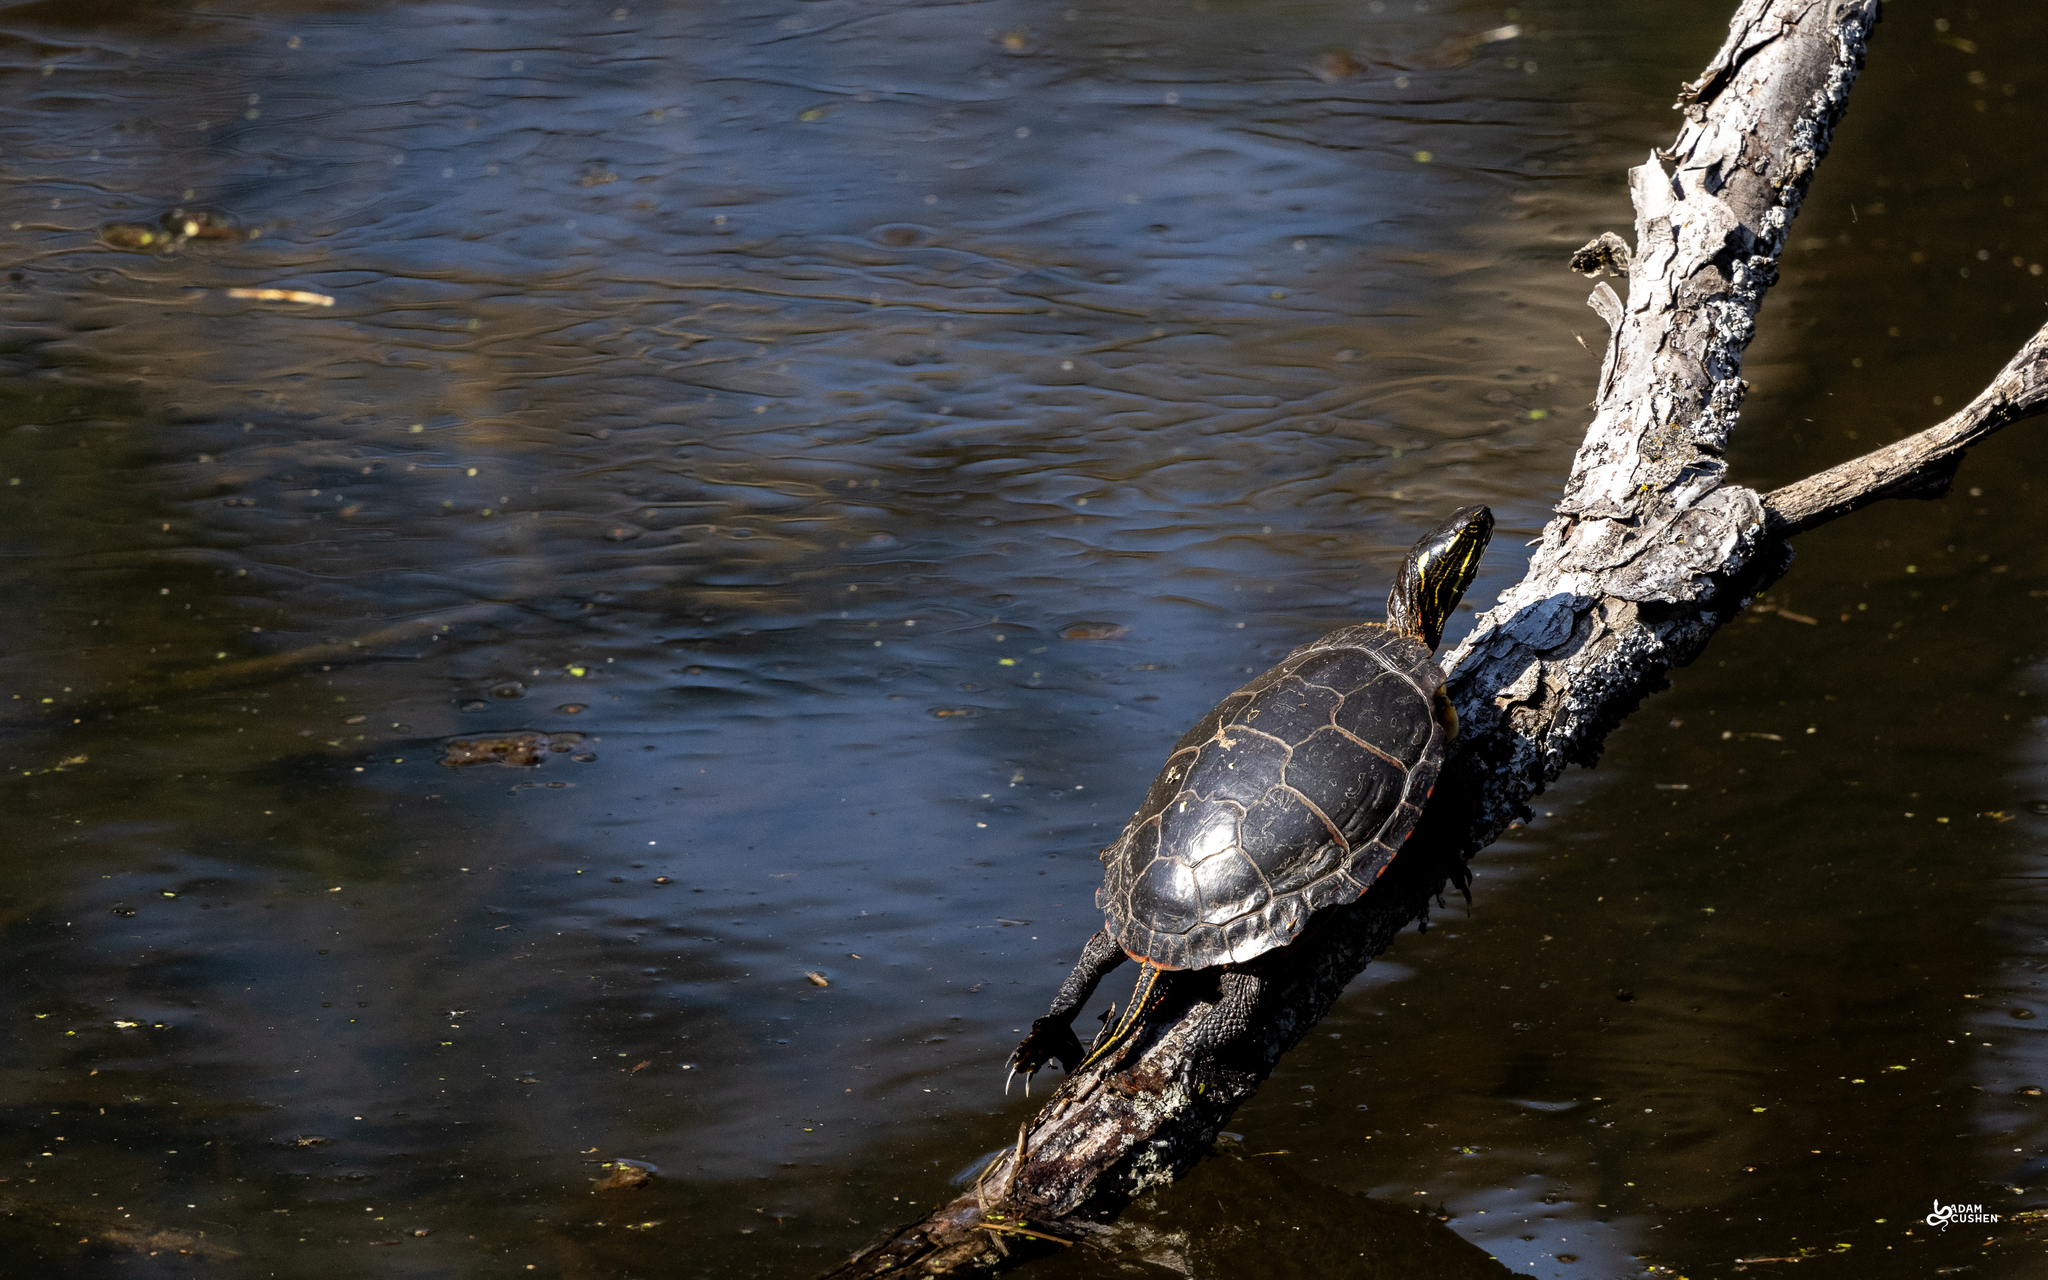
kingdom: Animalia
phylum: Chordata
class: Testudines
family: Emydidae
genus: Chrysemys
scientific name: Chrysemys picta
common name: Painted turtle
